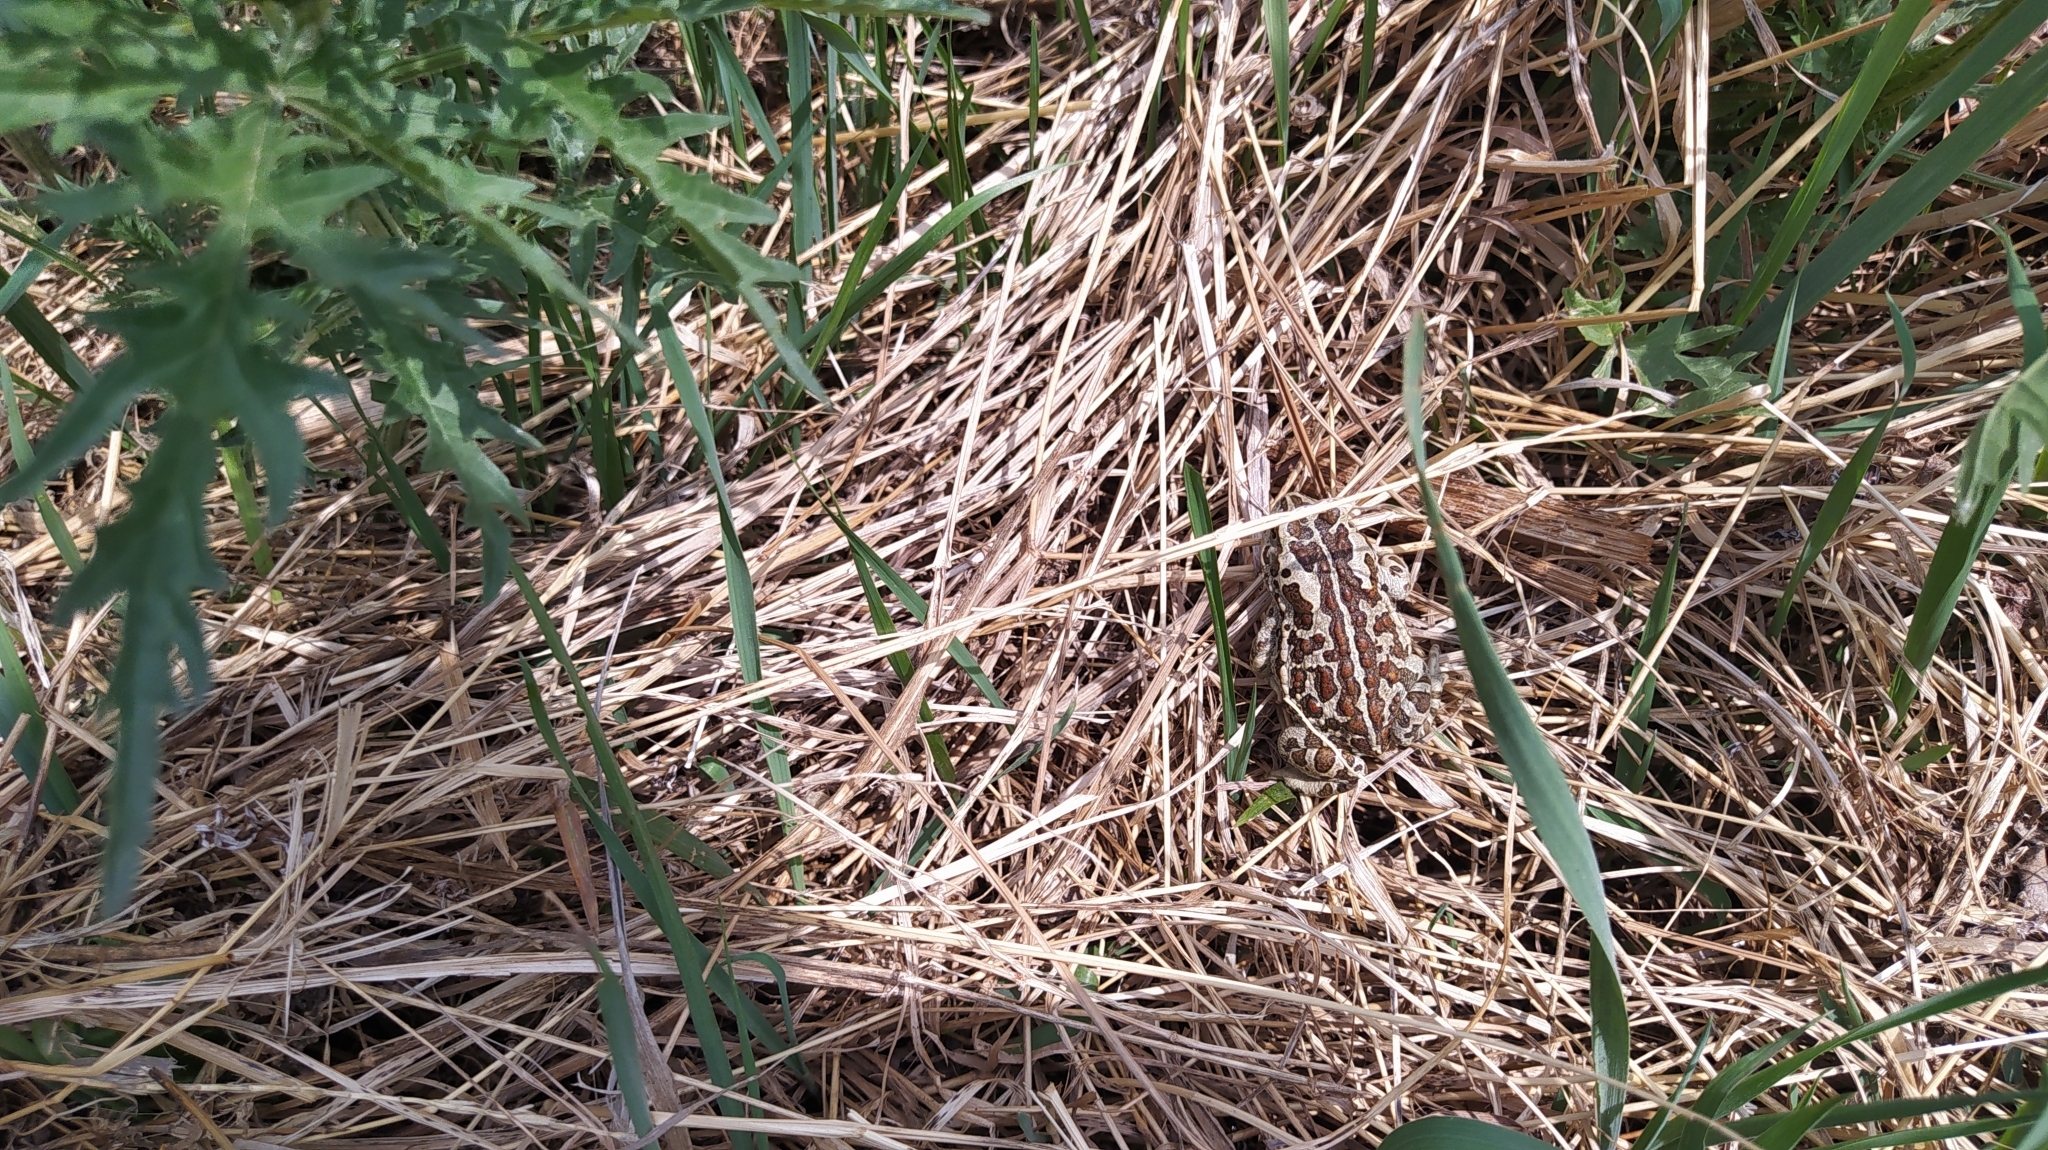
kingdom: Animalia
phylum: Chordata
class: Amphibia
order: Anura
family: Bufonidae
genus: Strauchbufo
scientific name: Strauchbufo raddei
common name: Mongolian toad
